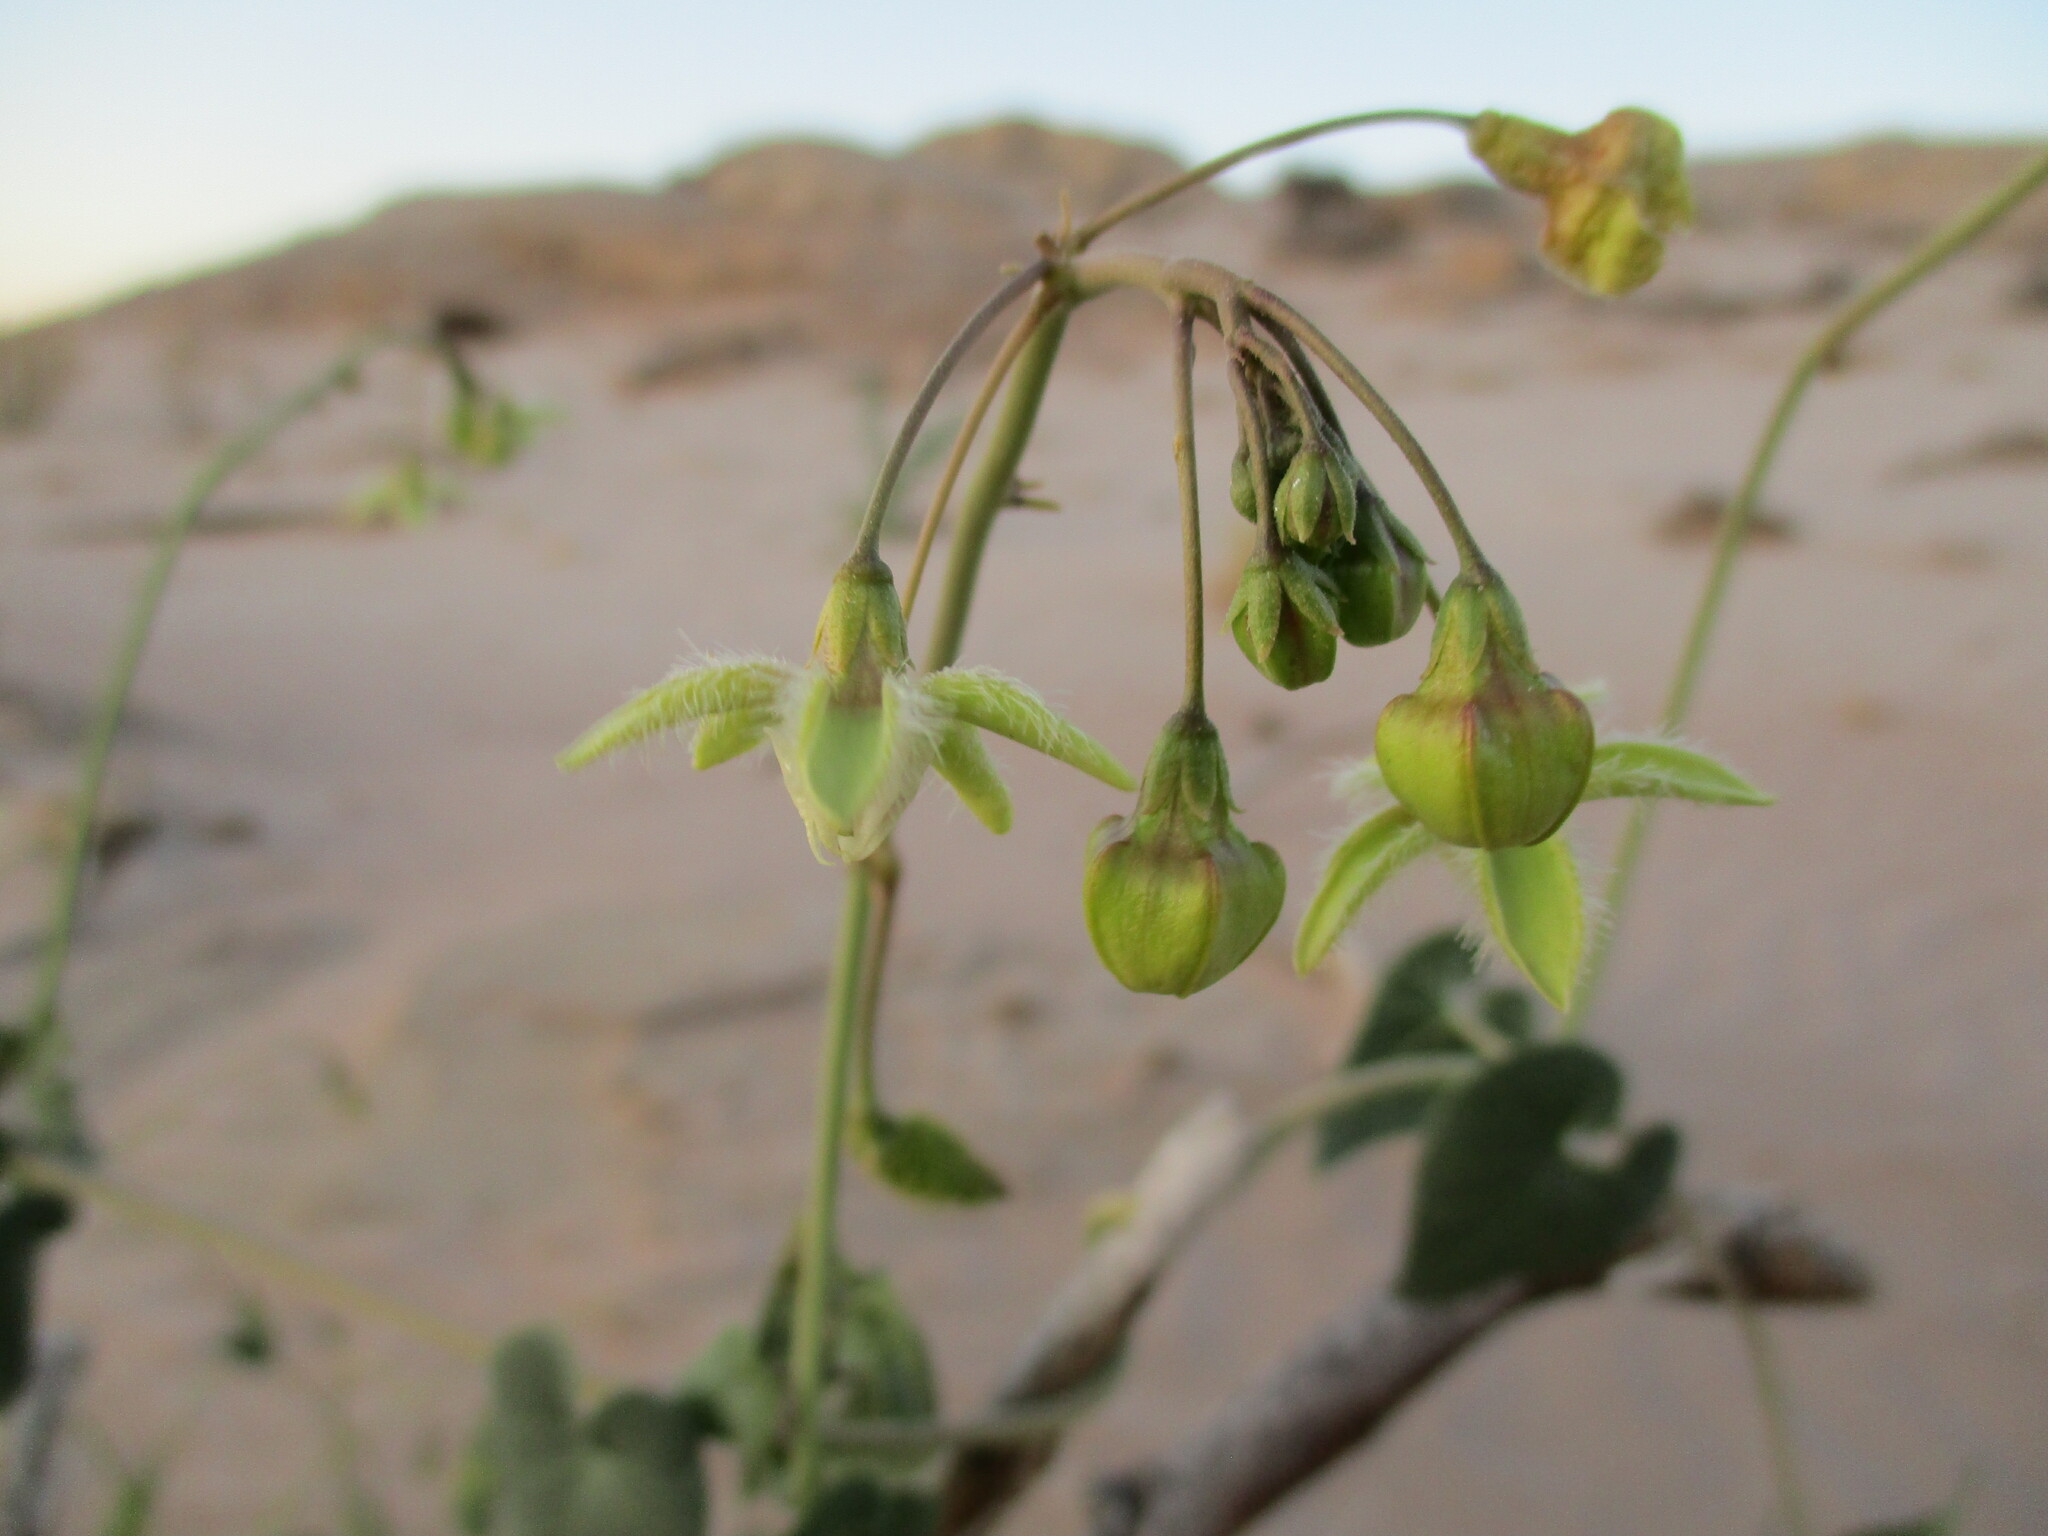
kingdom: Plantae
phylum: Tracheophyta
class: Magnoliopsida
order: Gentianales
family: Apocynaceae
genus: Pergularia
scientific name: Pergularia daemia
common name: Trellis-vine
